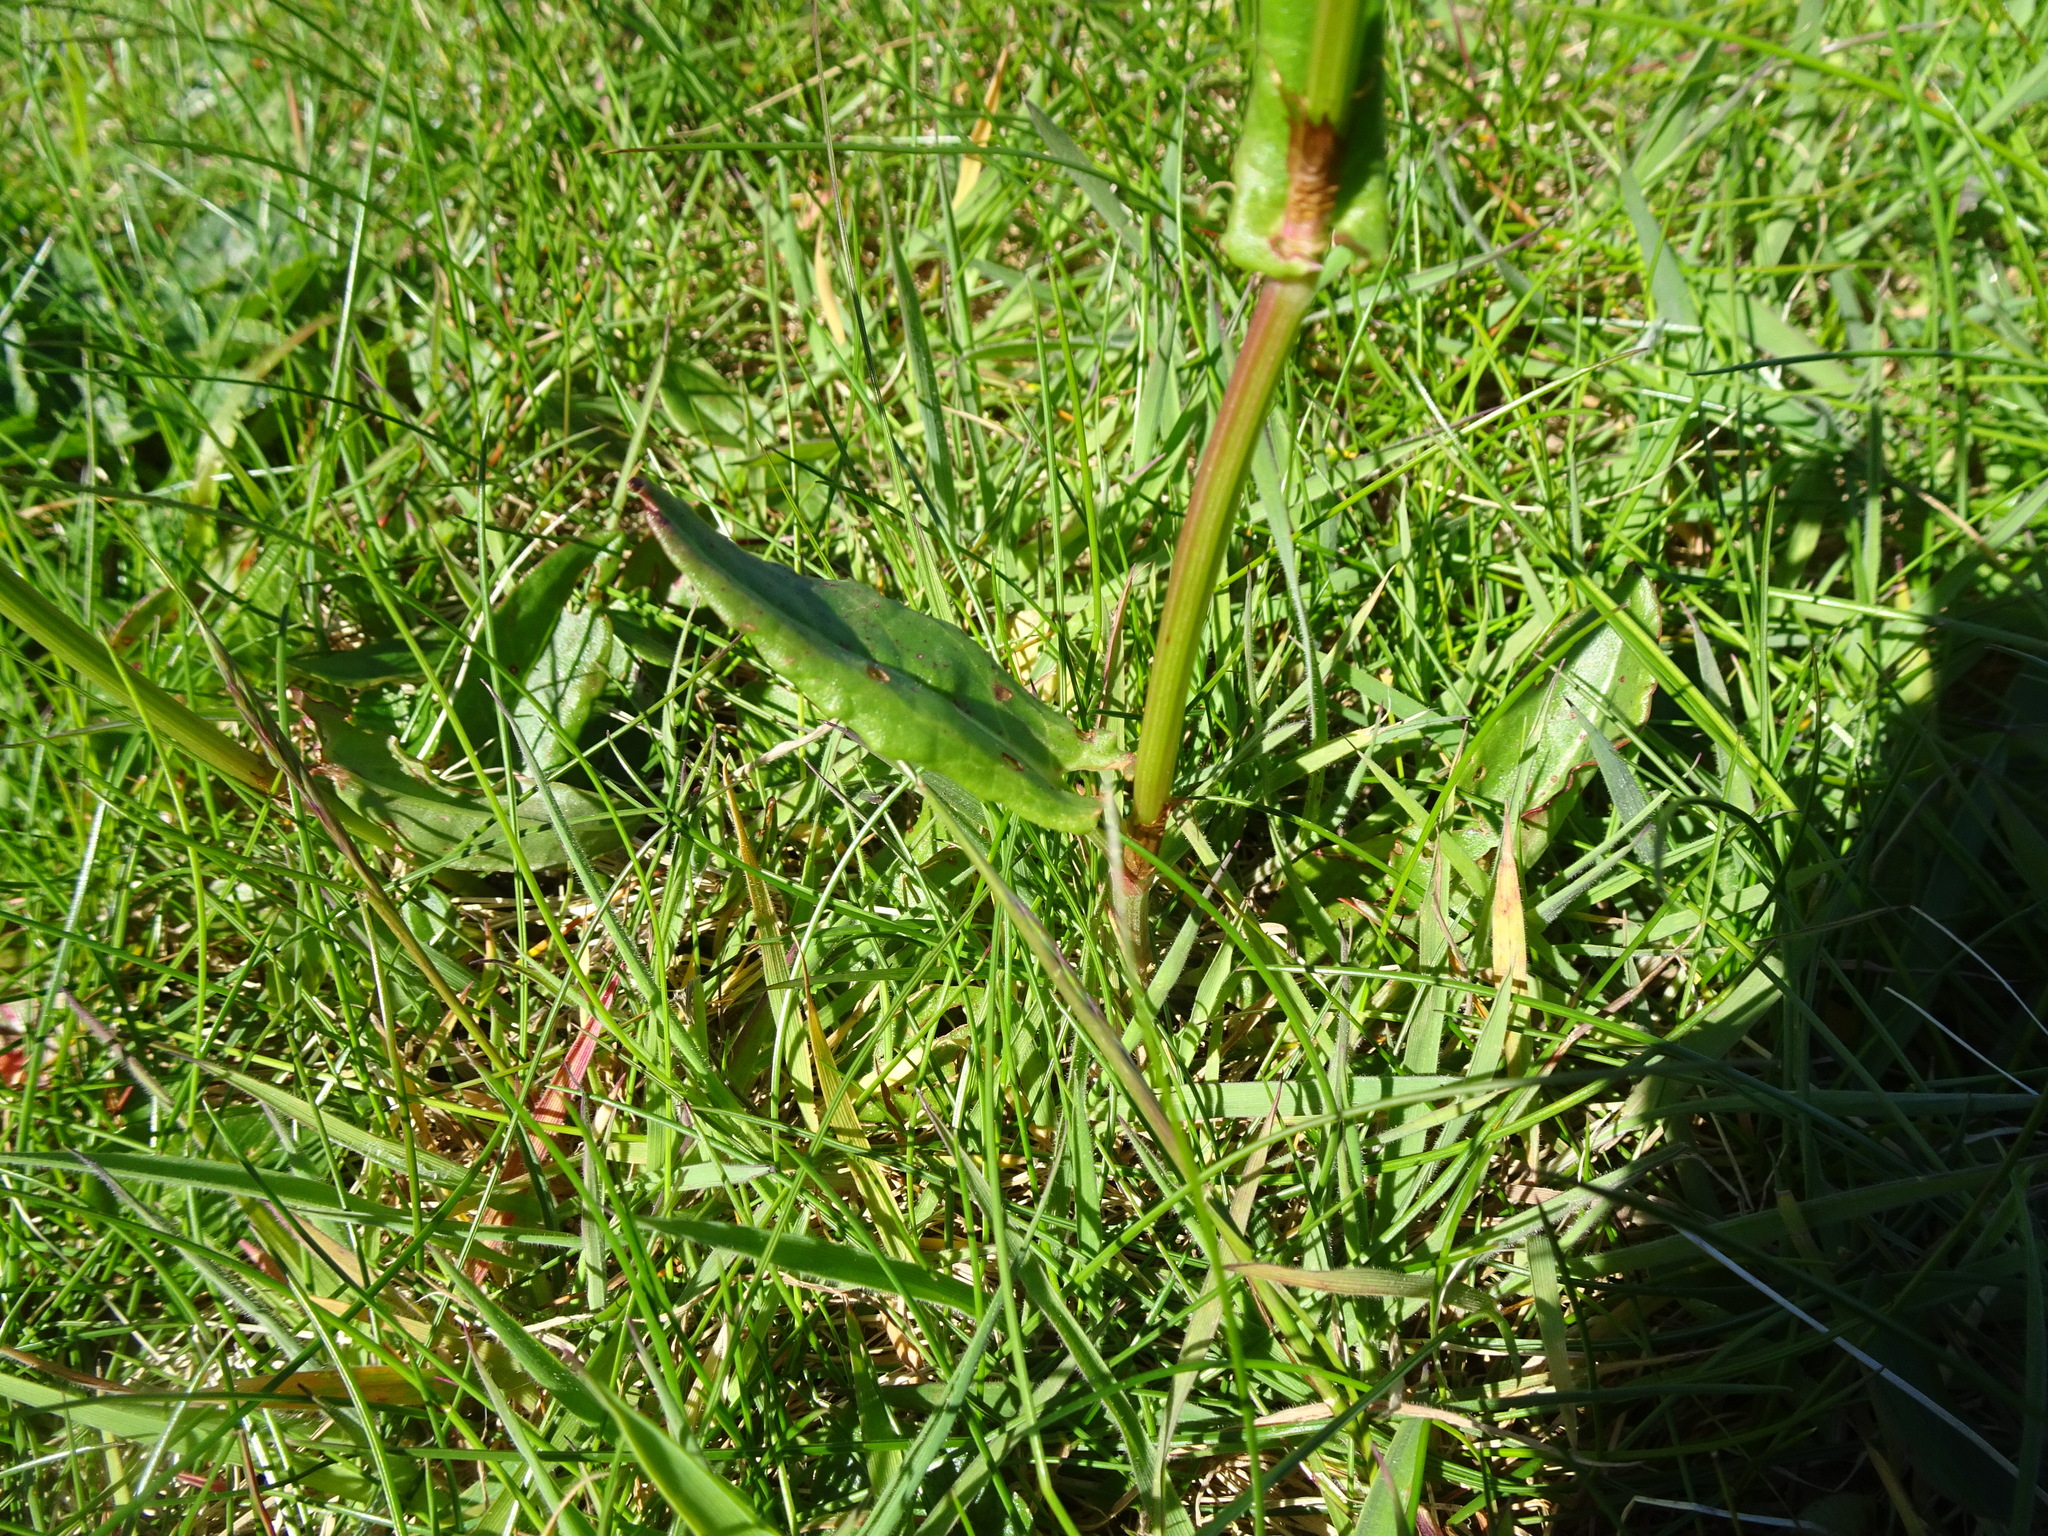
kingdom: Plantae
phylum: Tracheophyta
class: Magnoliopsida
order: Caryophyllales
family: Polygonaceae
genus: Rumex
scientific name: Rumex acetosa
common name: Garden sorrel
